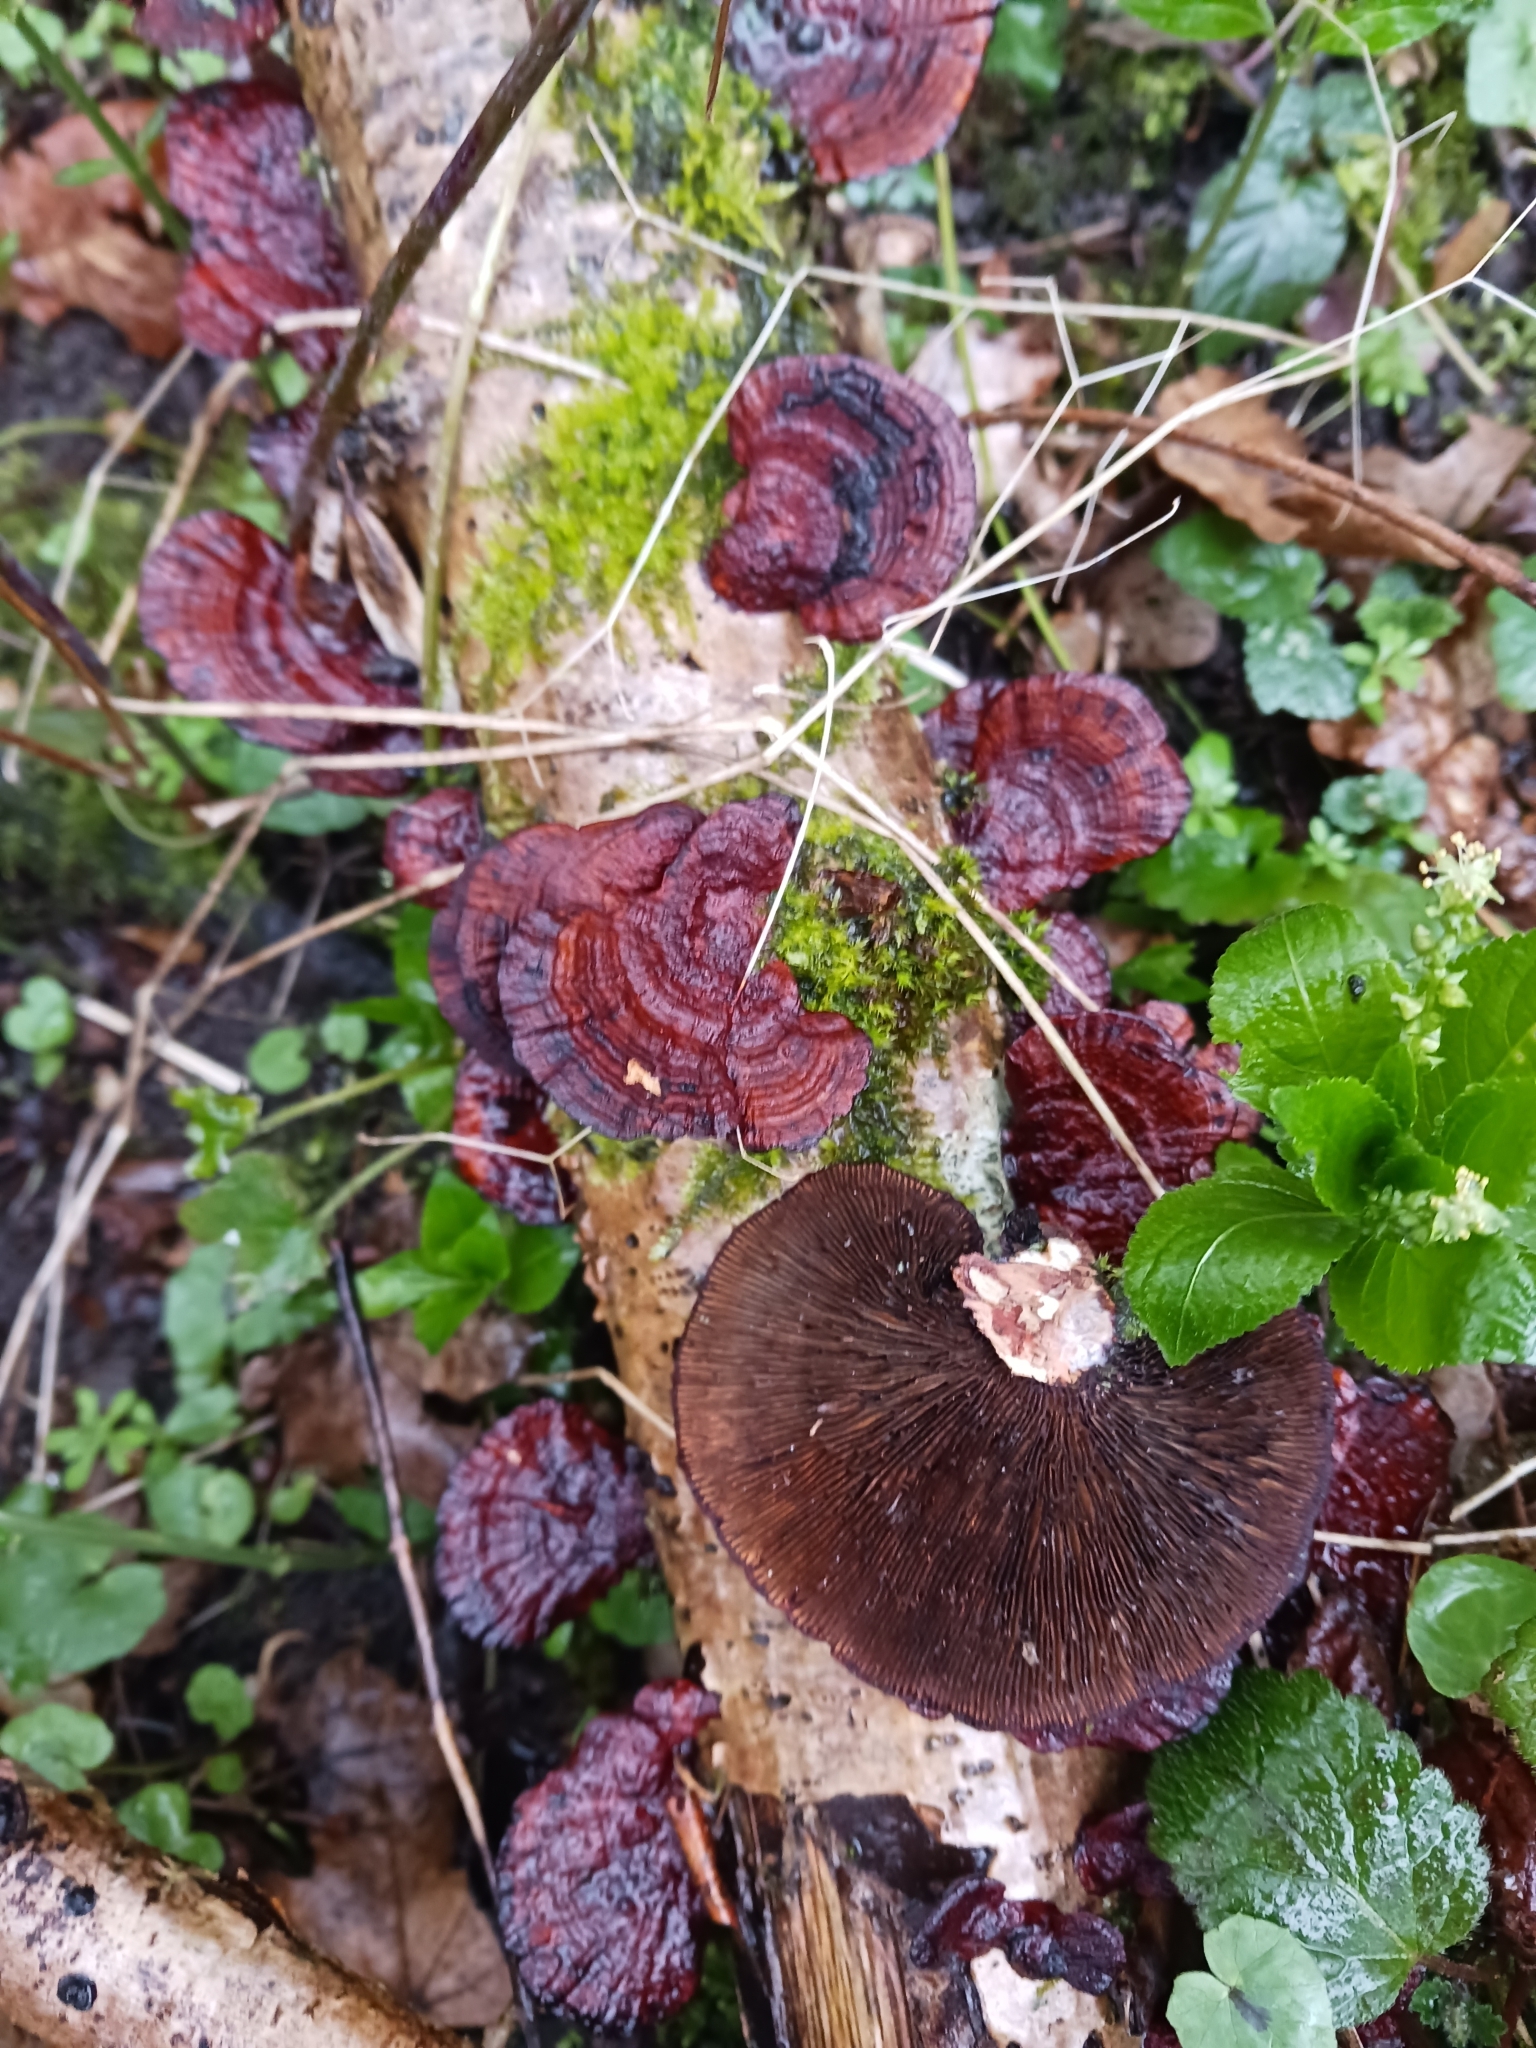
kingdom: Fungi
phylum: Basidiomycota
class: Agaricomycetes
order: Polyporales
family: Polyporaceae
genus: Daedaleopsis
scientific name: Daedaleopsis tricolor
